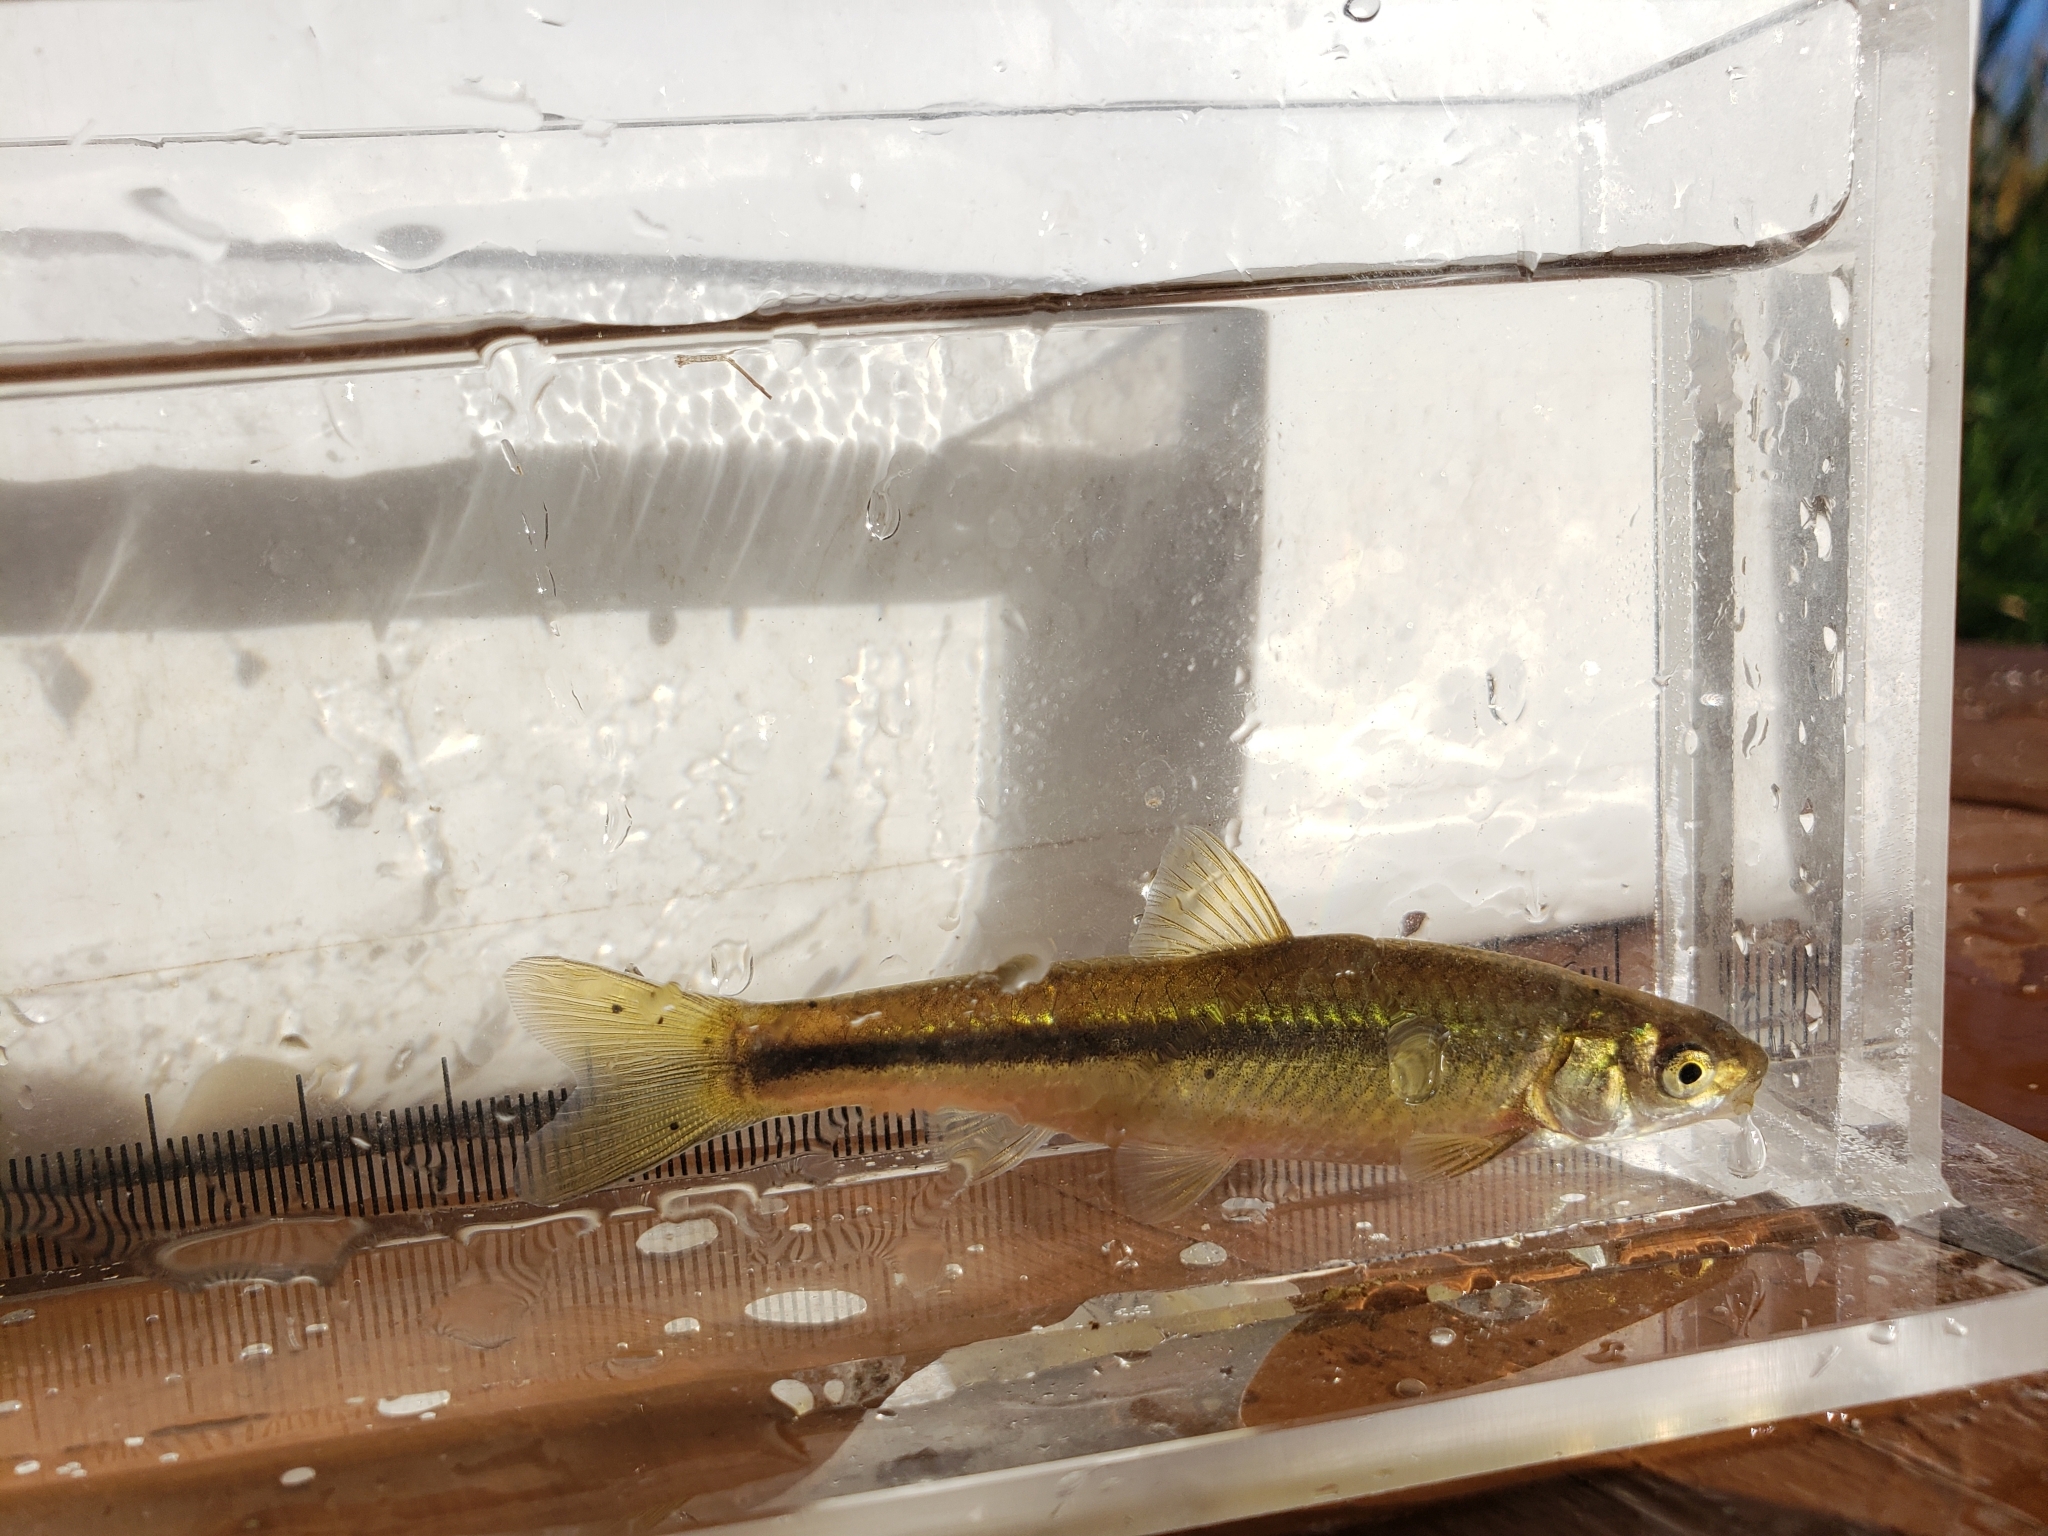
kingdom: Animalia
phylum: Chordata
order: Cypriniformes
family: Cyprinidae
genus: Hybognathus
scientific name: Hybognathus hankinsoni
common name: Brassy minnow
